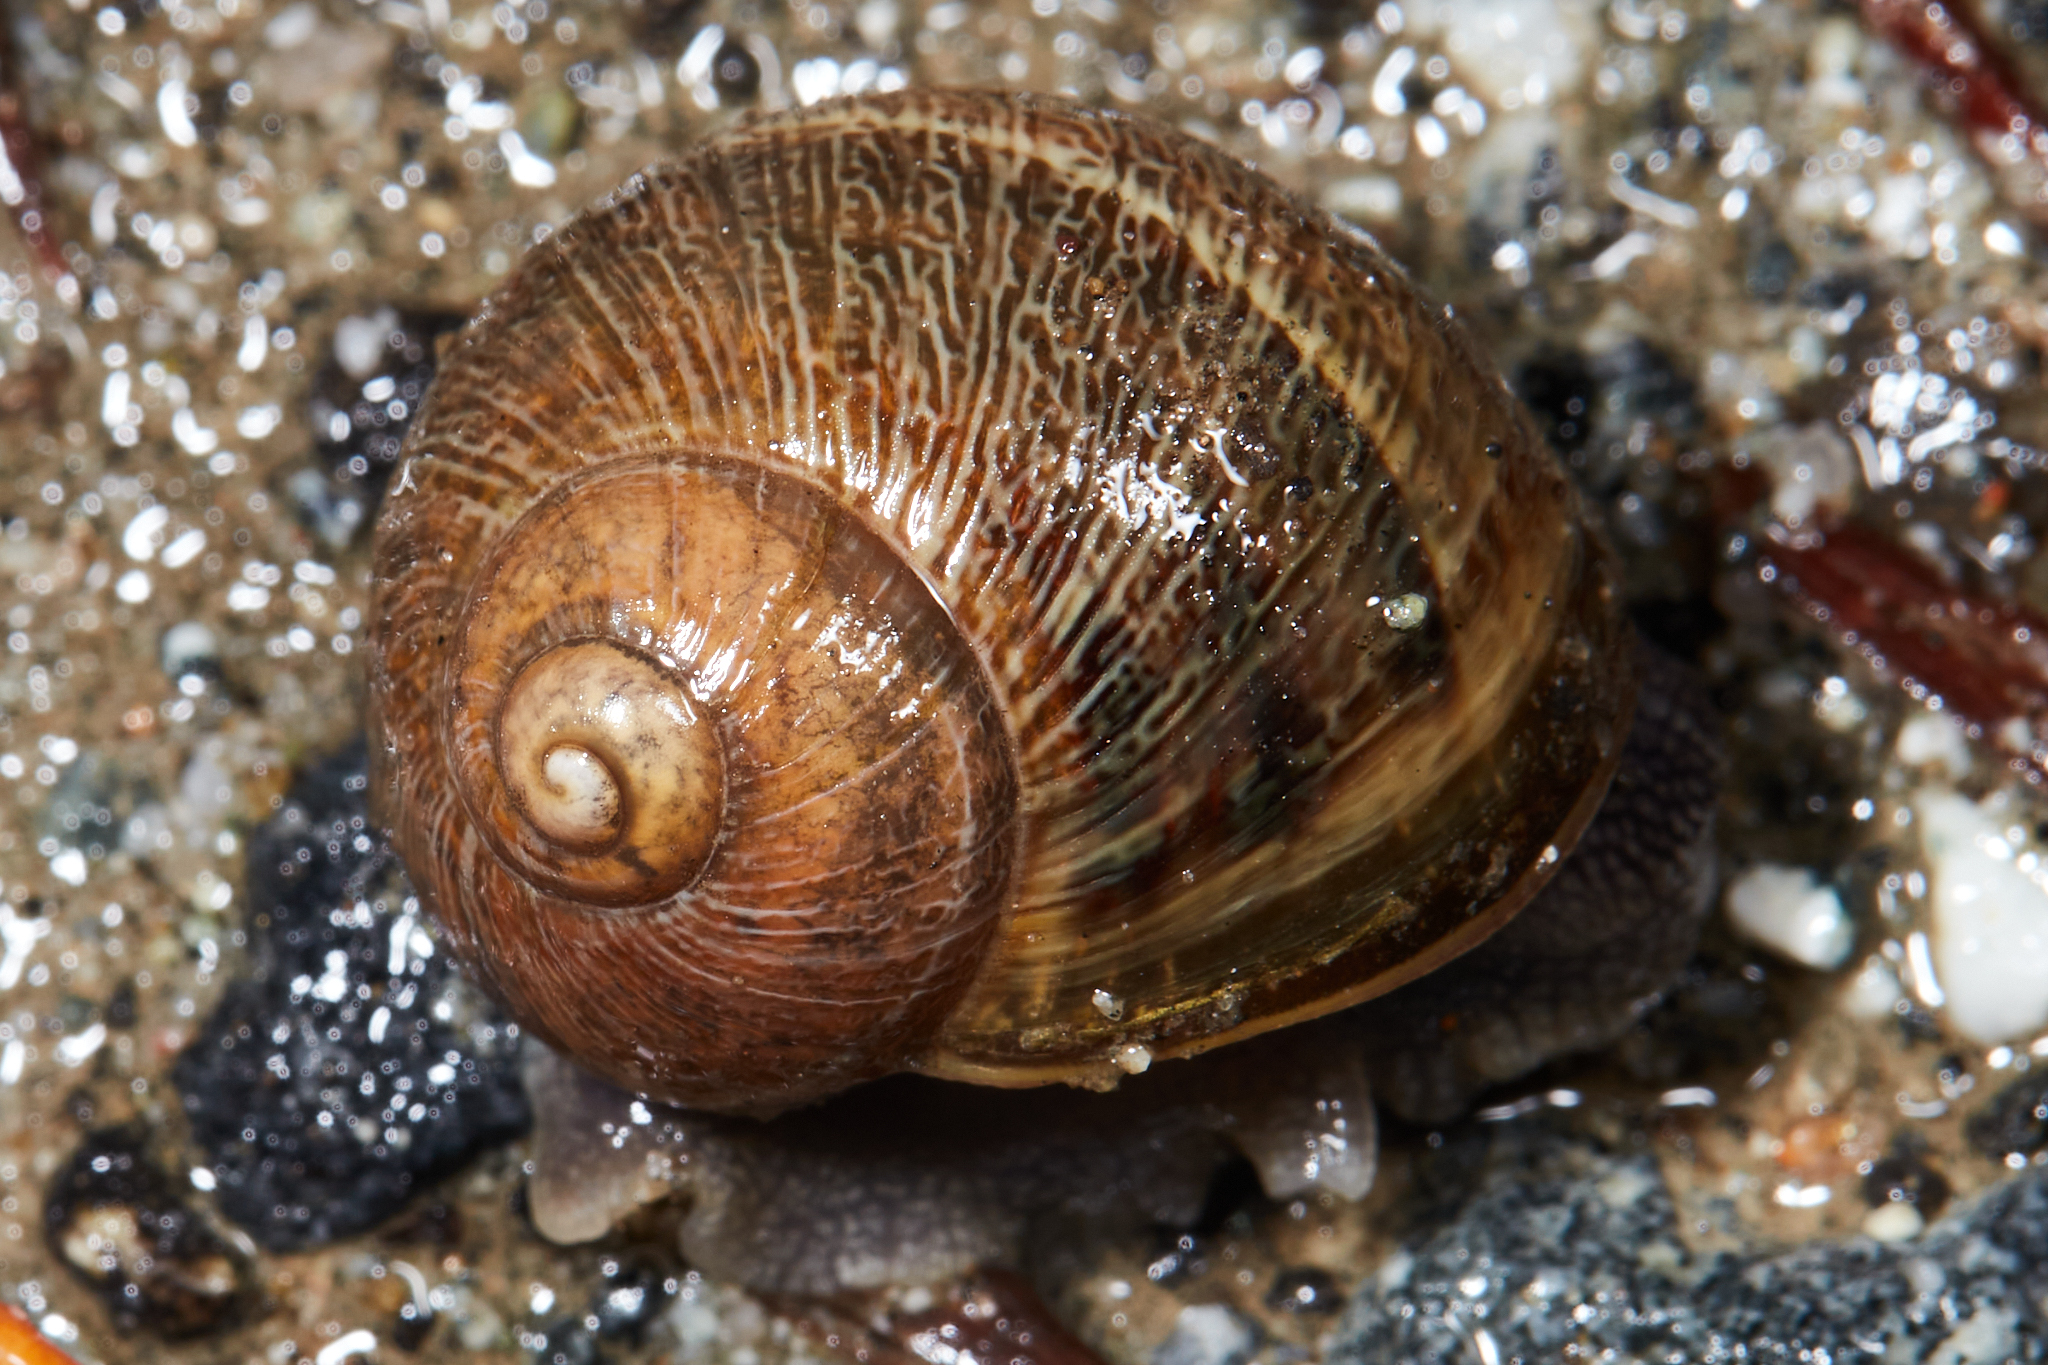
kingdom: Animalia
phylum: Mollusca
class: Gastropoda
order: Stylommatophora
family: Helicidae
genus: Cornu
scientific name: Cornu aspersum
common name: Brown garden snail
